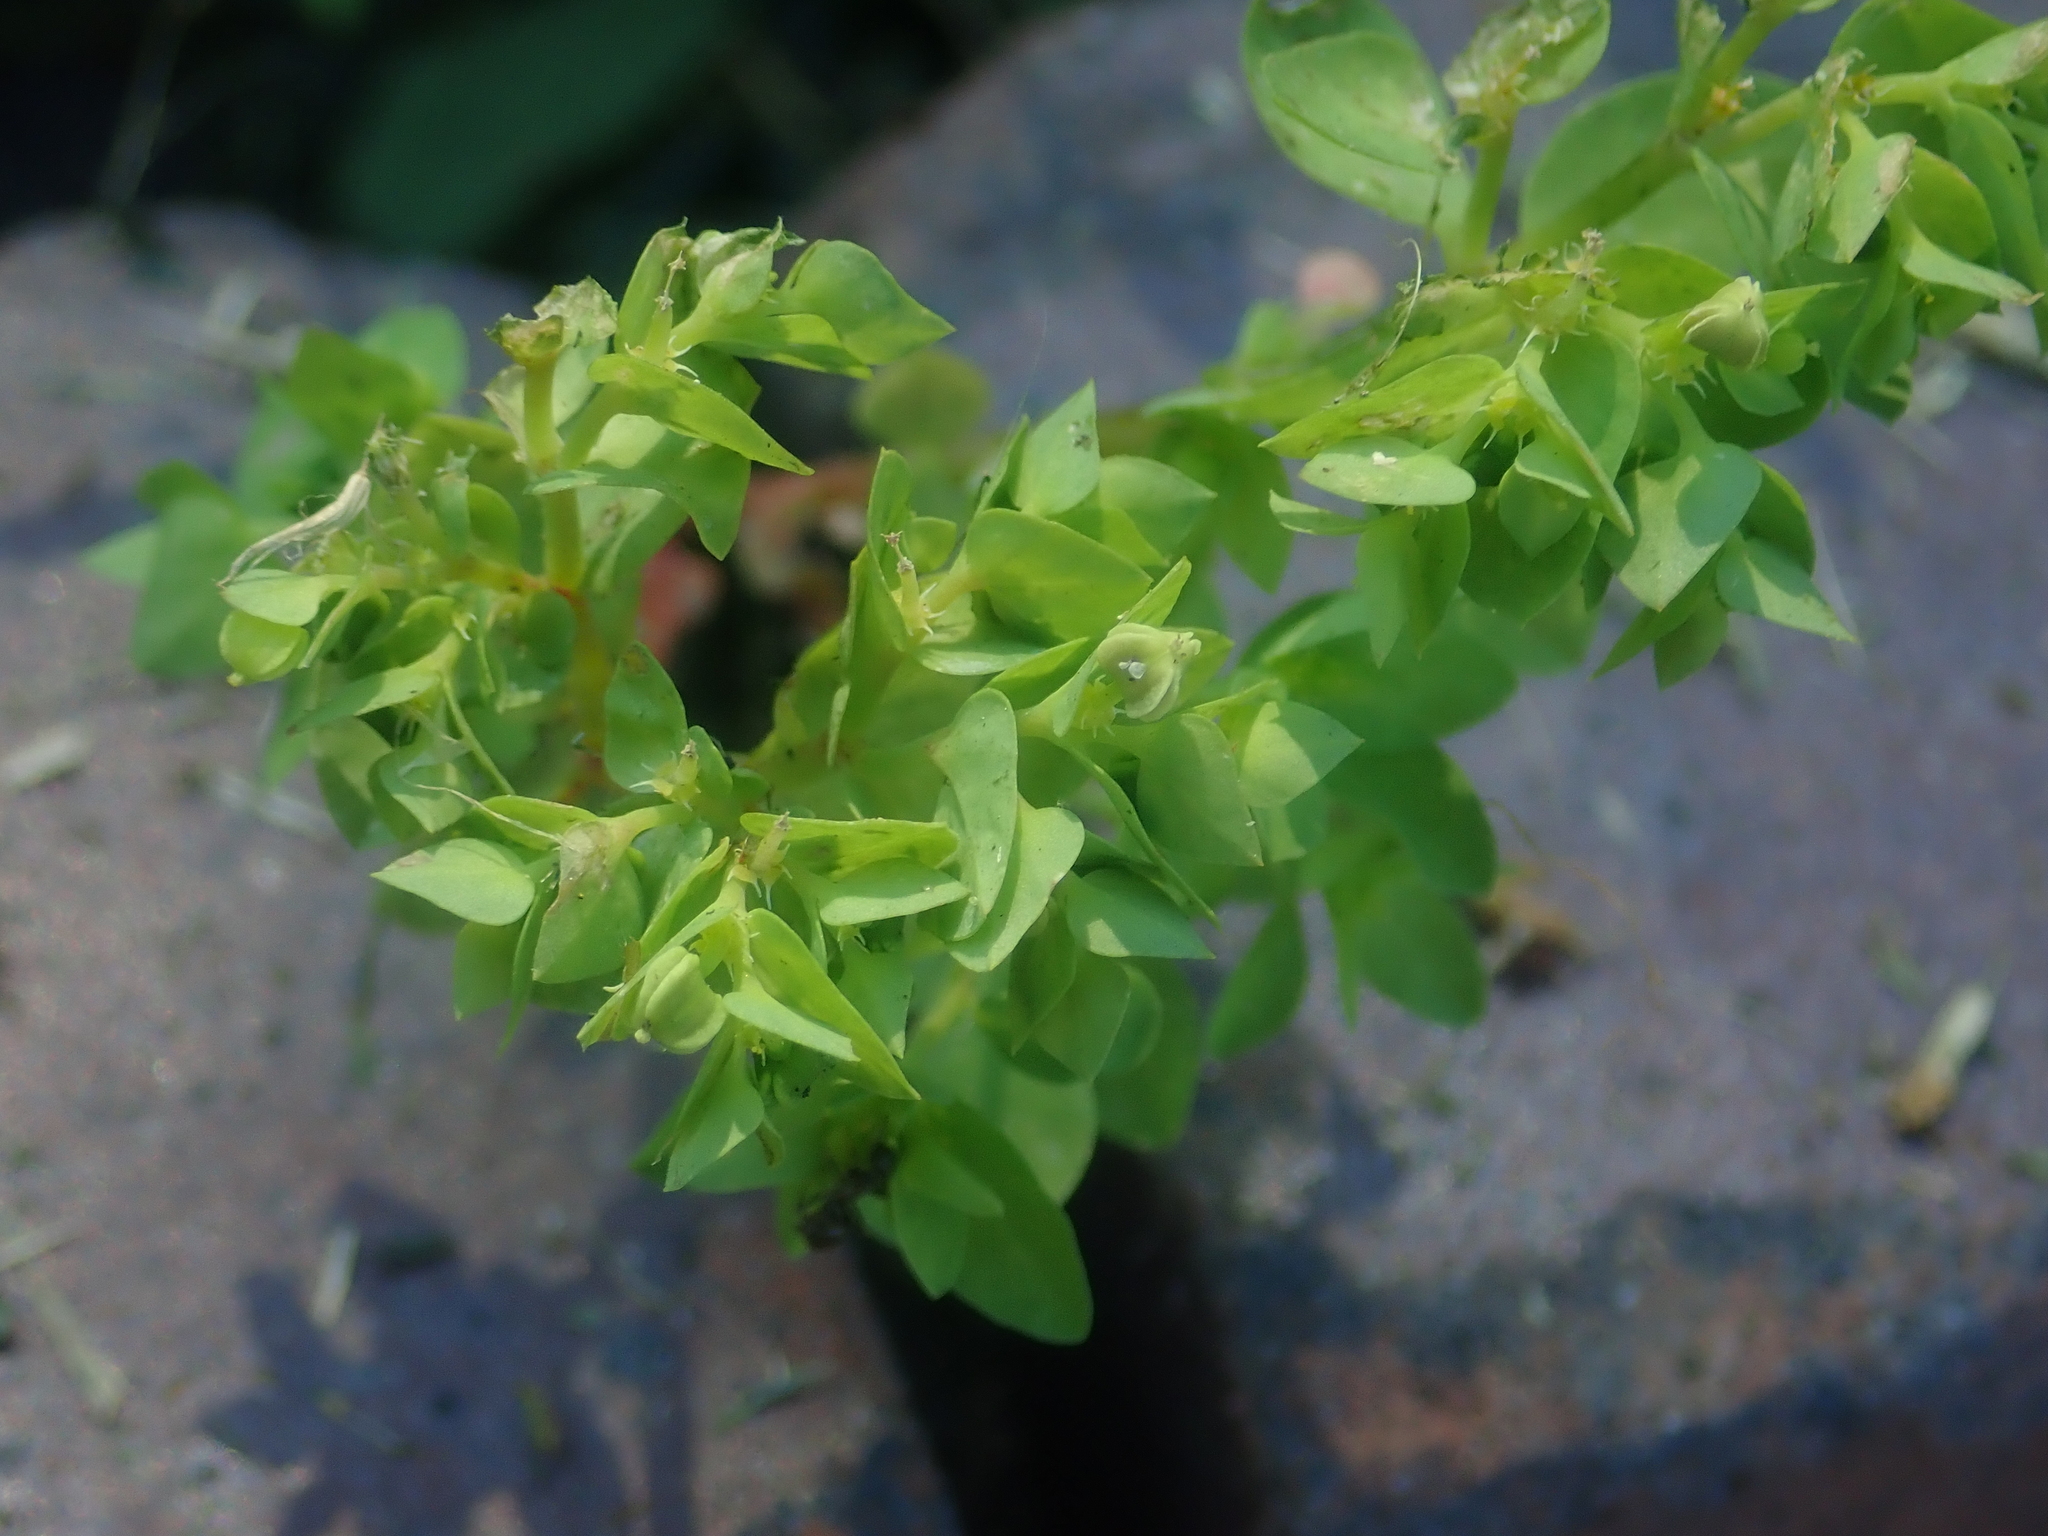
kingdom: Plantae
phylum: Tracheophyta
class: Magnoliopsida
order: Malpighiales
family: Euphorbiaceae
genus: Euphorbia
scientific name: Euphorbia peplus
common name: Petty spurge
